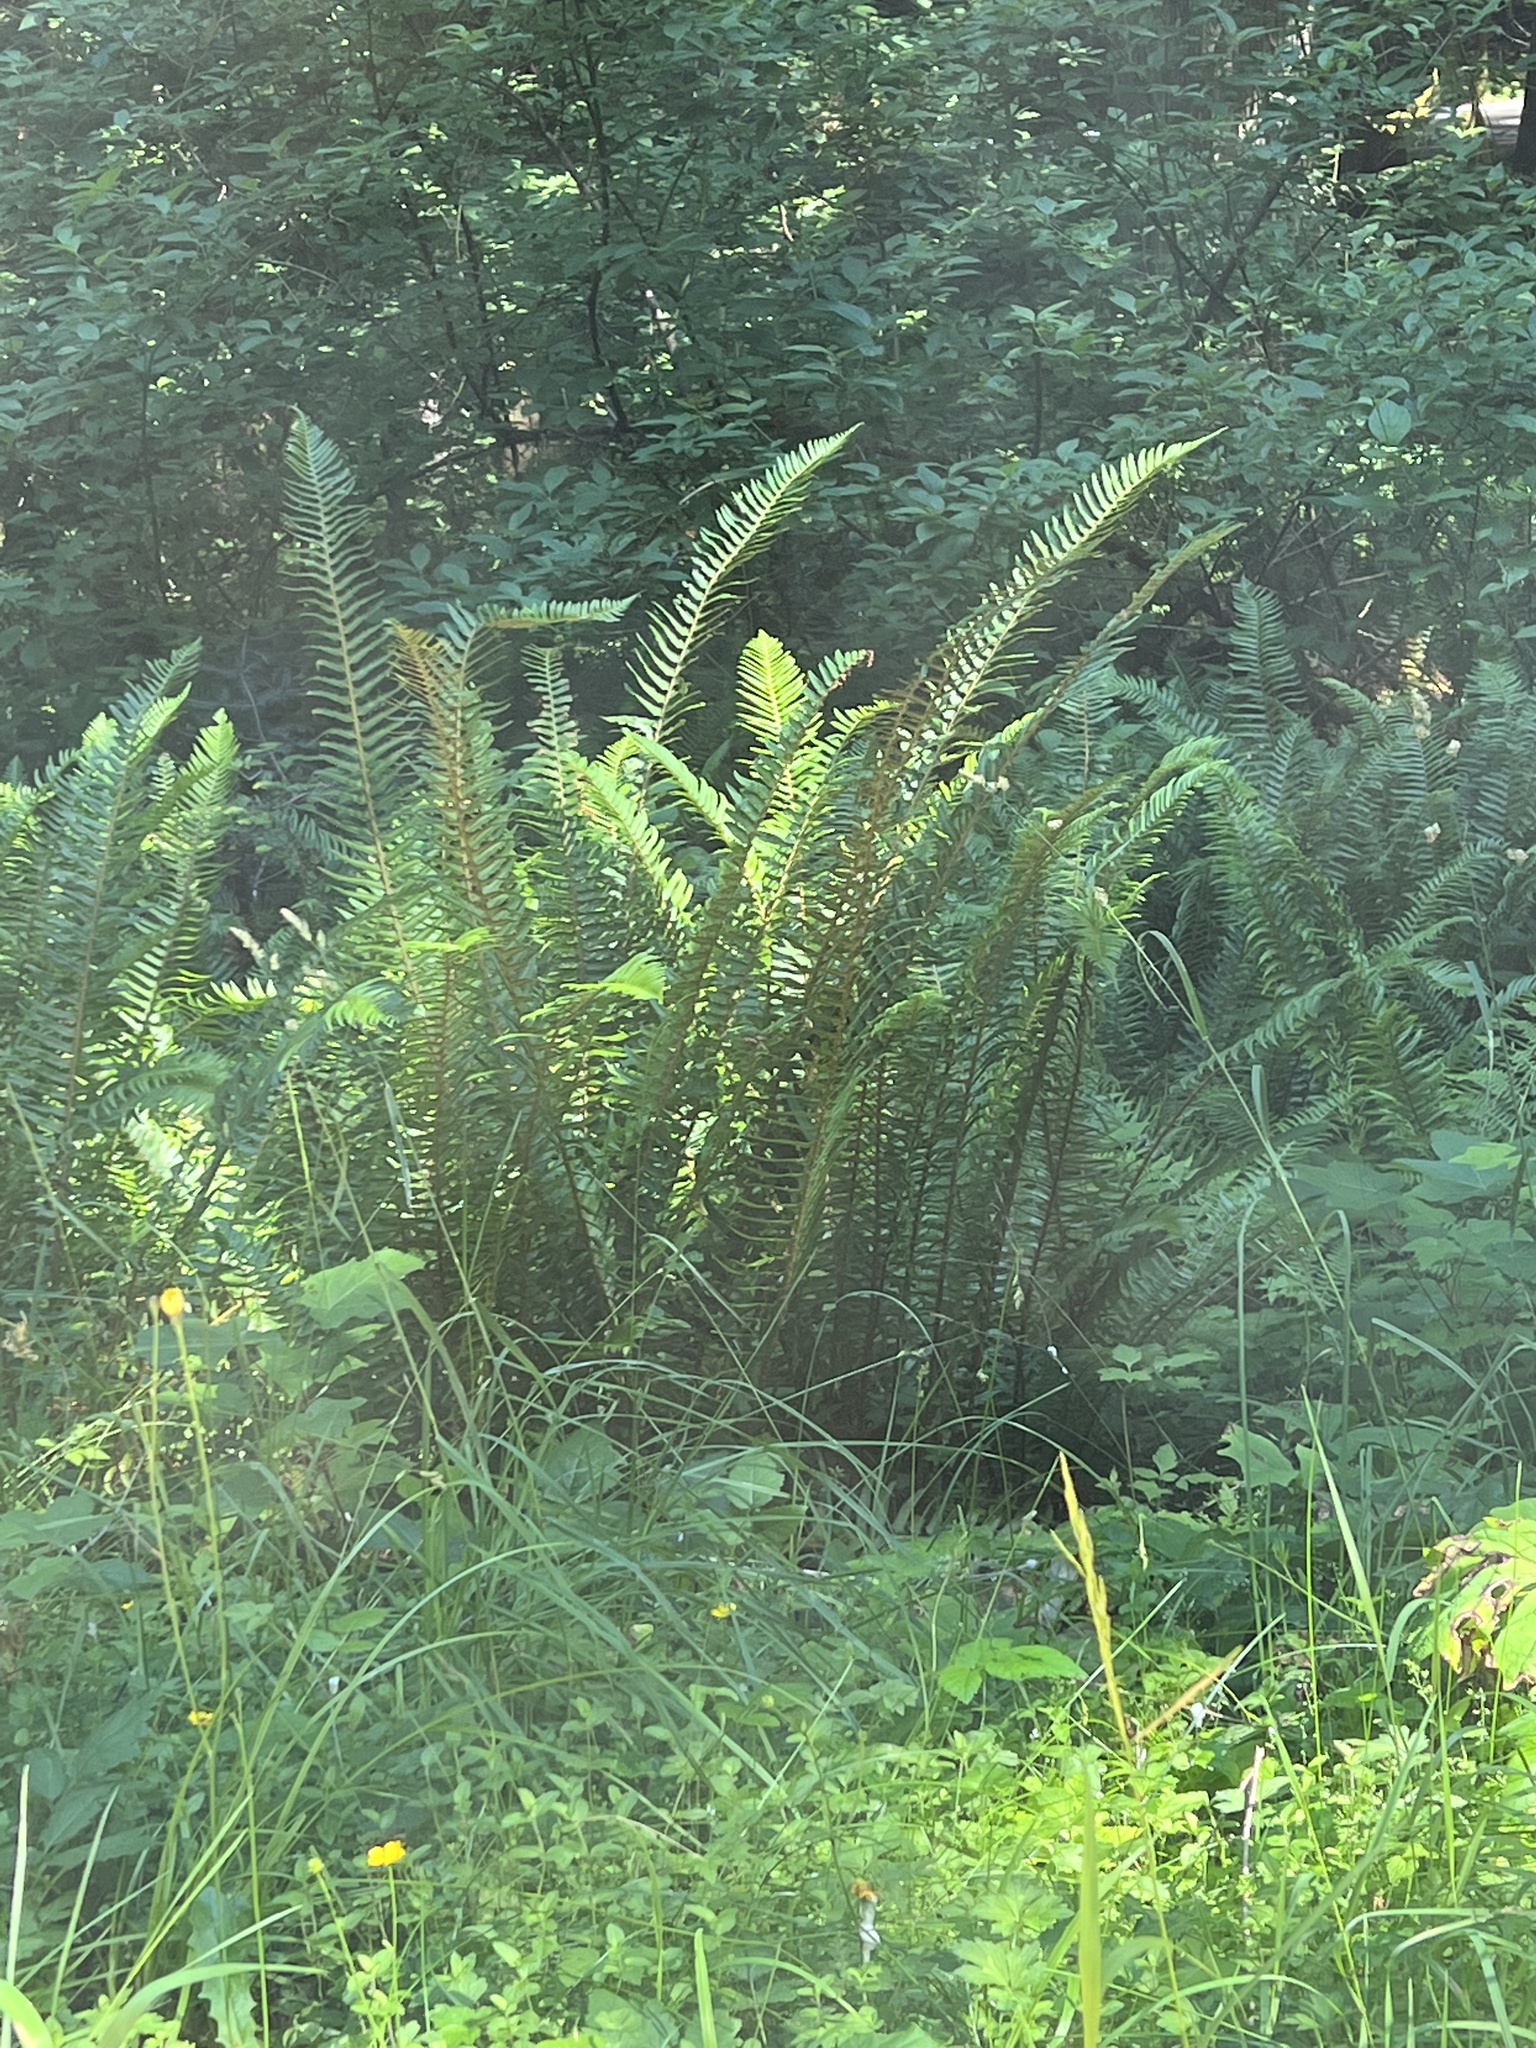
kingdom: Plantae
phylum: Tracheophyta
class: Polypodiopsida
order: Polypodiales
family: Dryopteridaceae
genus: Polystichum
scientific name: Polystichum munitum
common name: Western sword-fern
